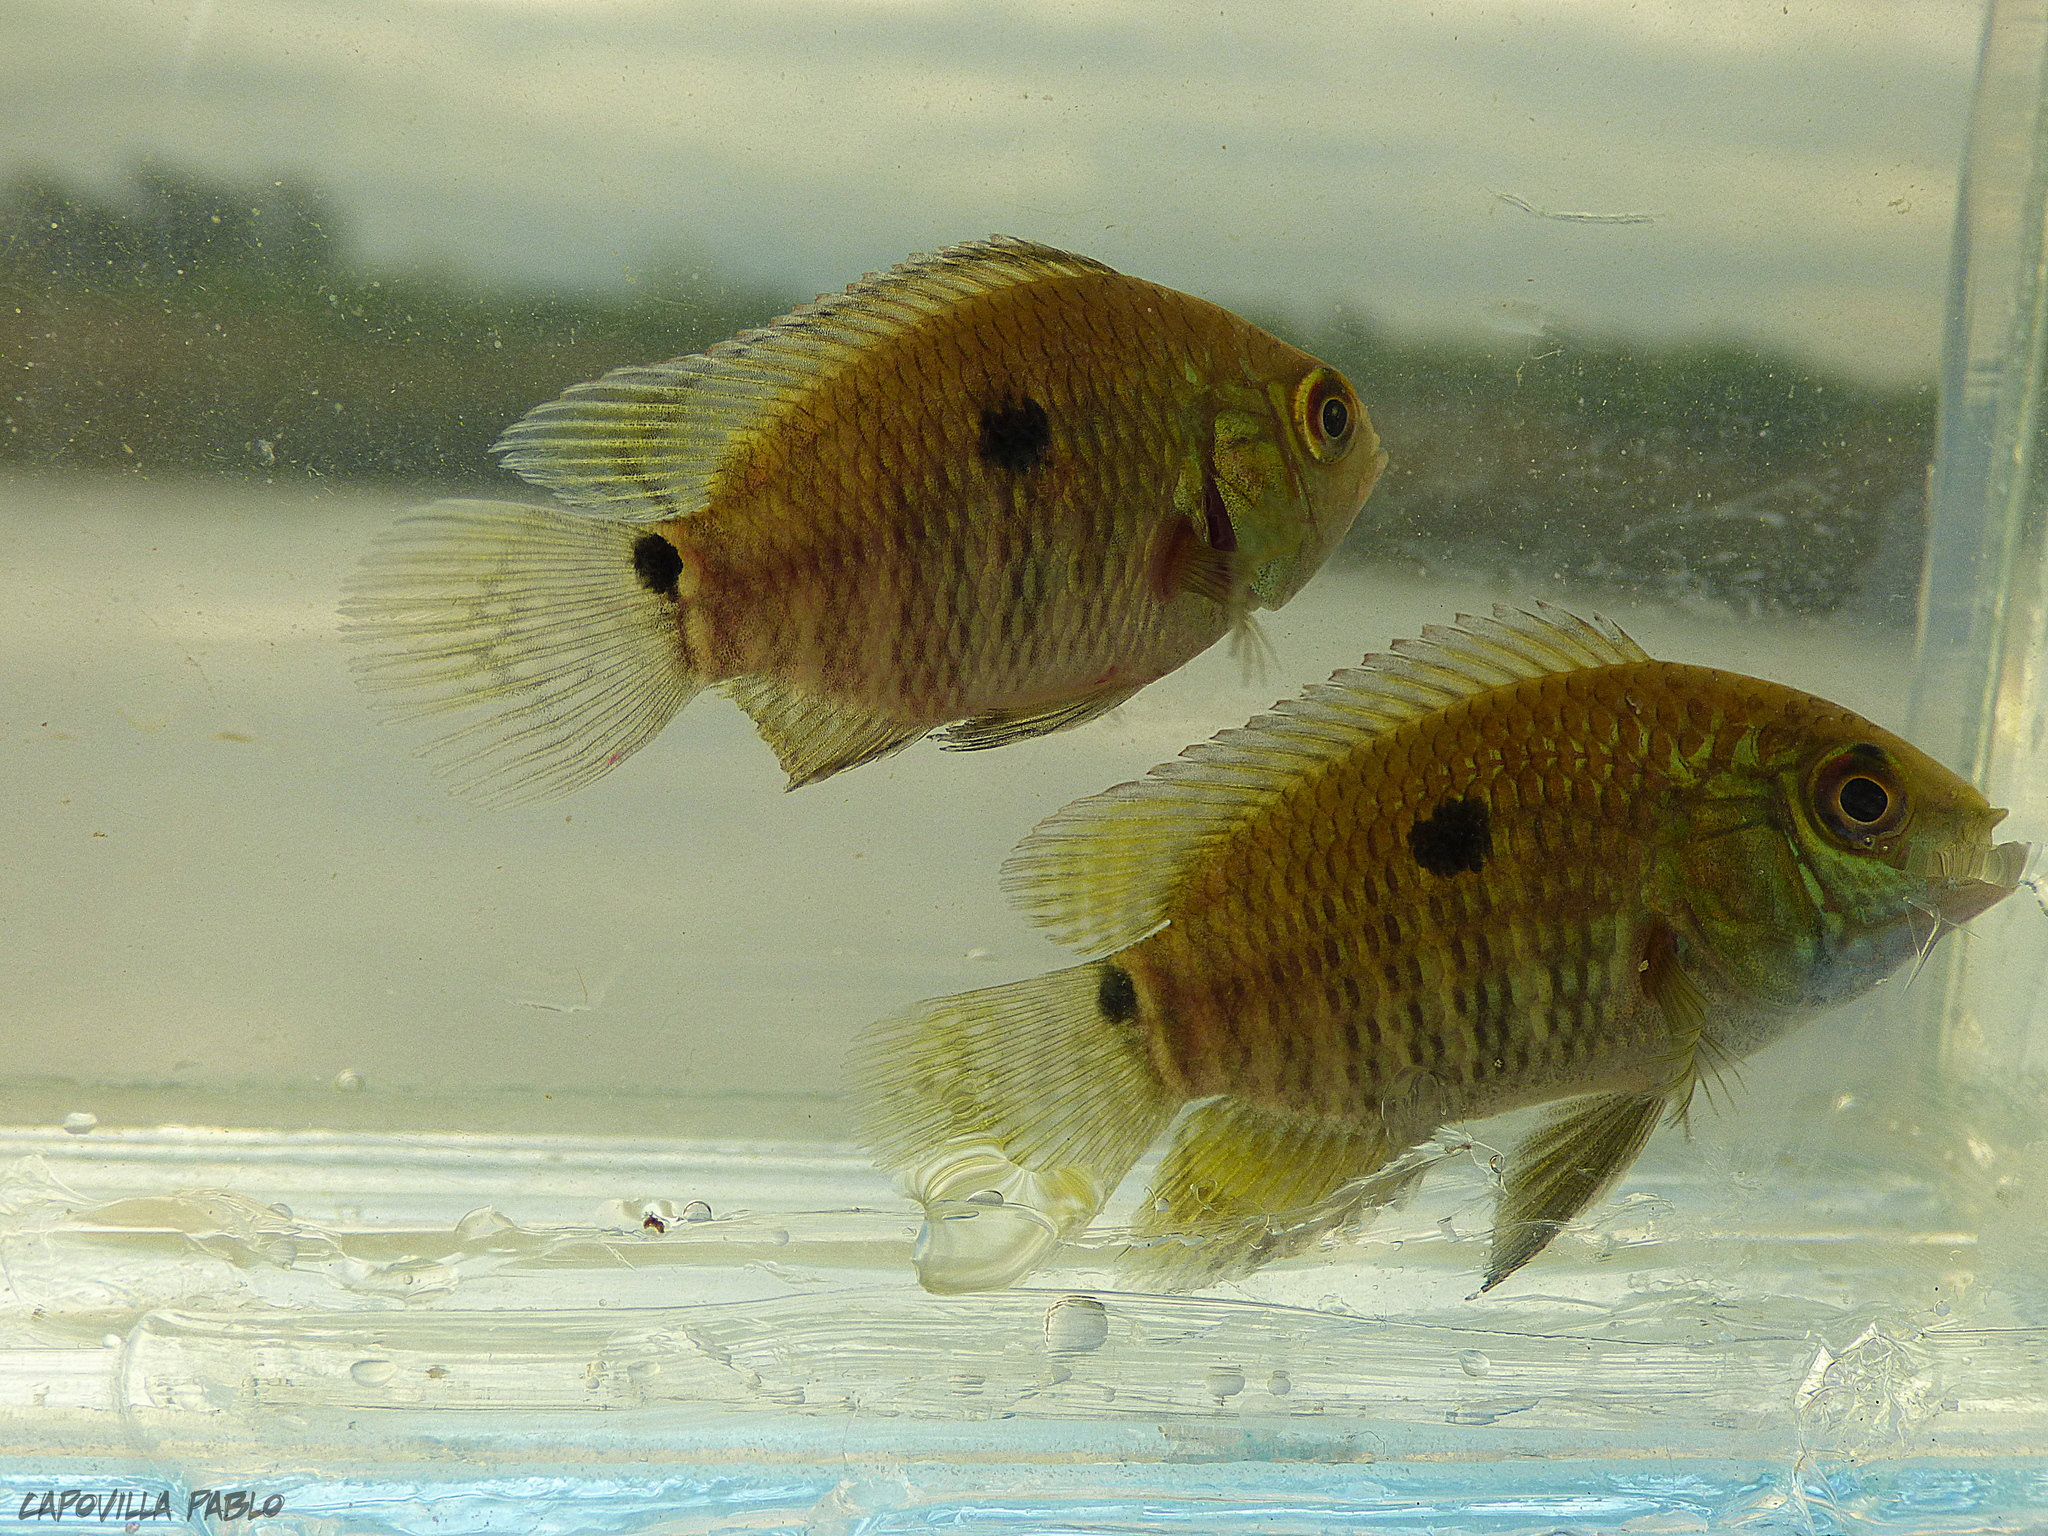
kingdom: Animalia
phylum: Chordata
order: Perciformes
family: Cichlidae
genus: Cichlasoma
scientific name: Cichlasoma dimerus
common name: Chanchita
